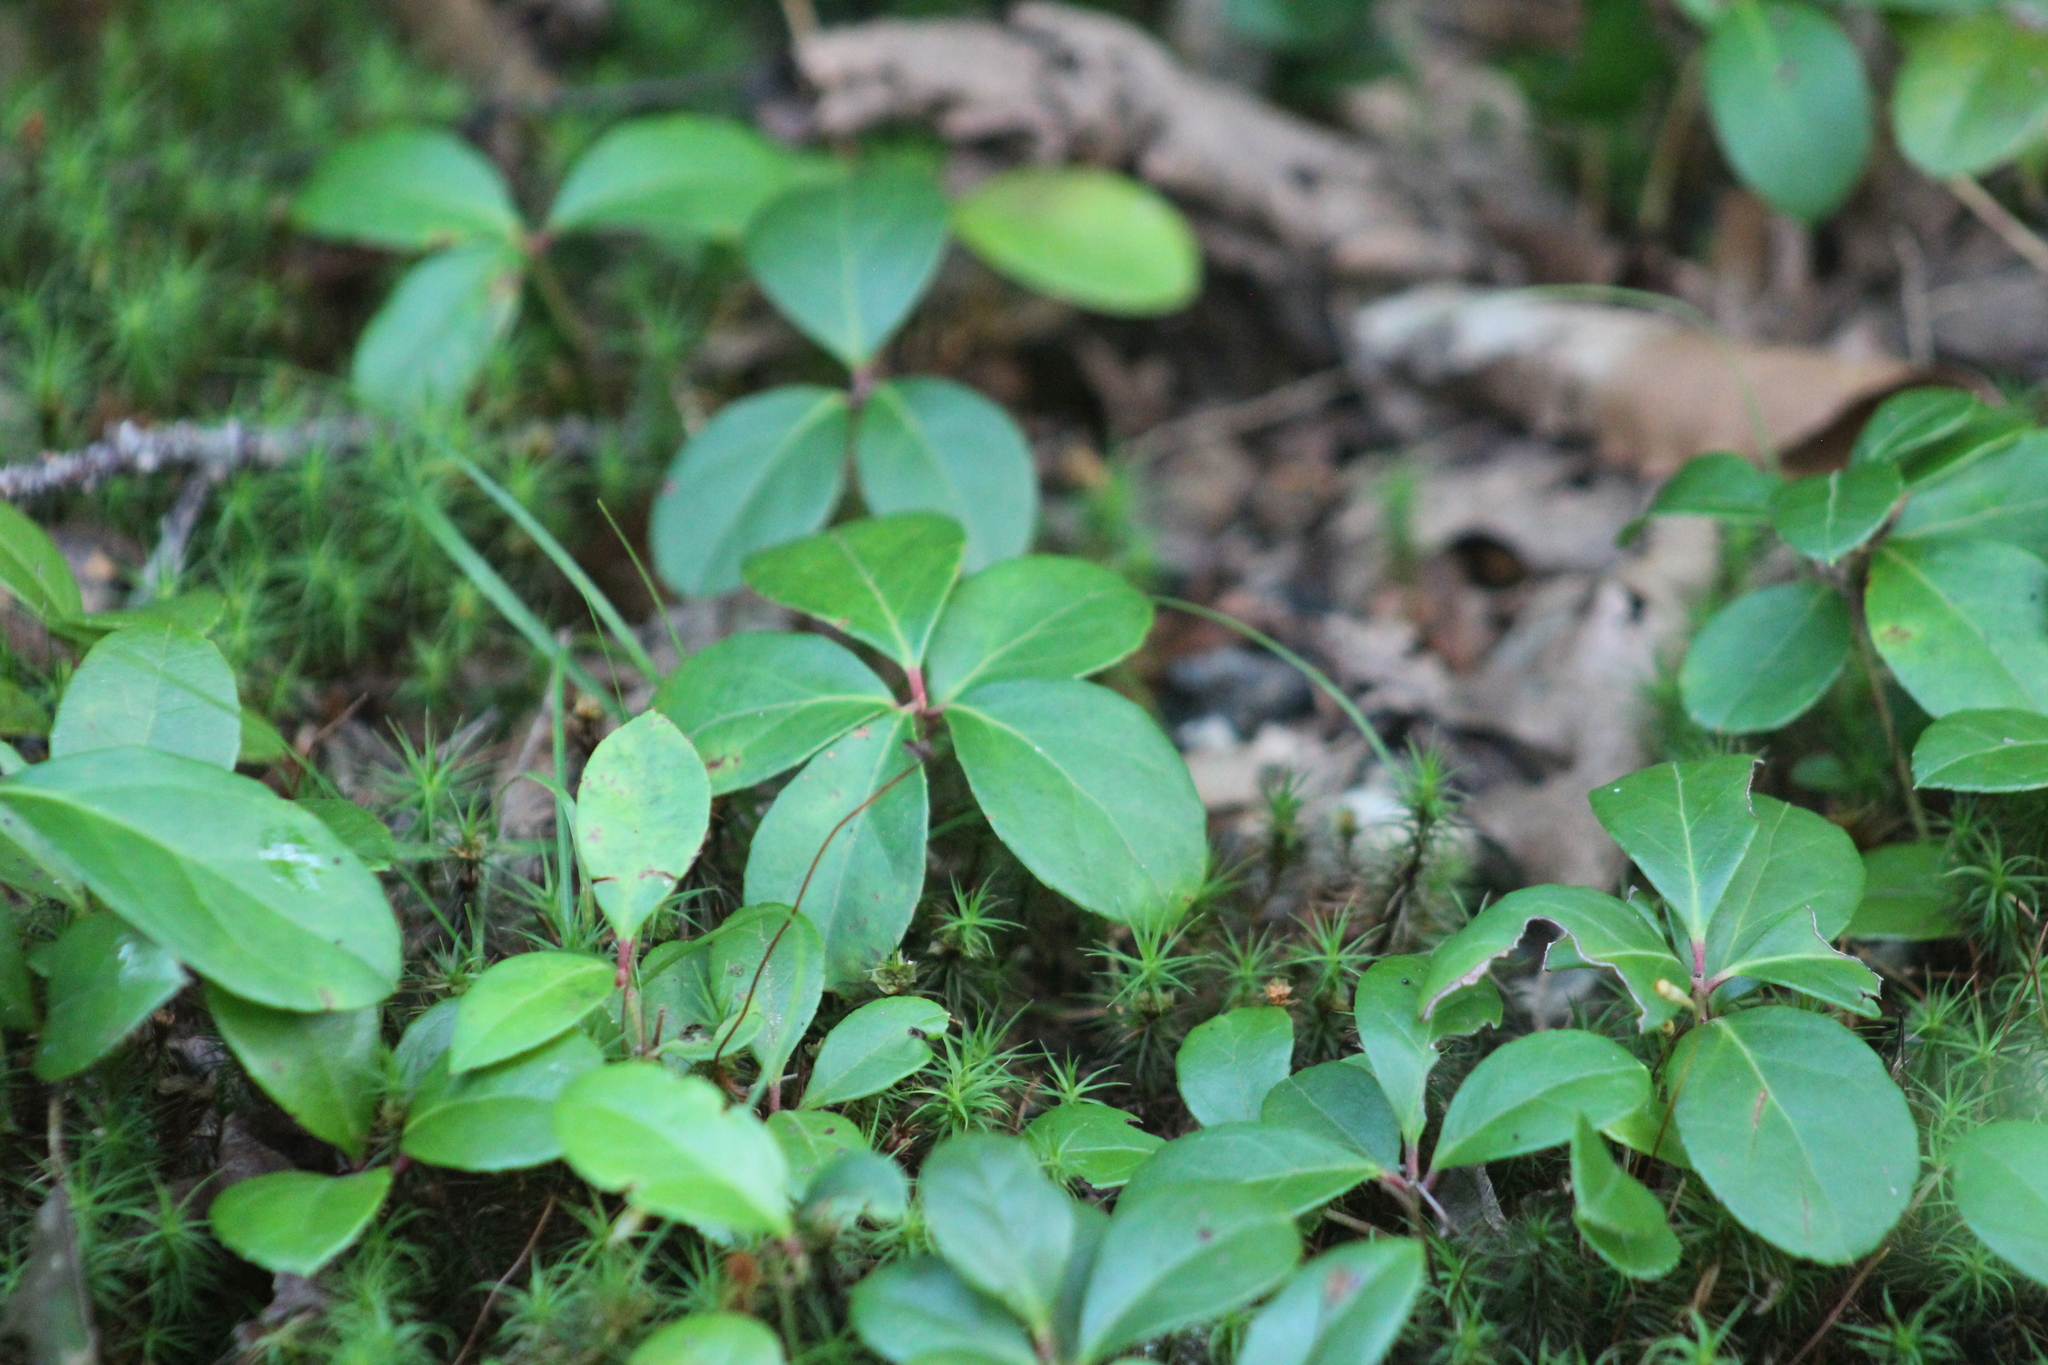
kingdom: Plantae
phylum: Tracheophyta
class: Magnoliopsida
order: Ericales
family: Ericaceae
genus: Gaultheria
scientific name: Gaultheria procumbens
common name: Checkerberry
